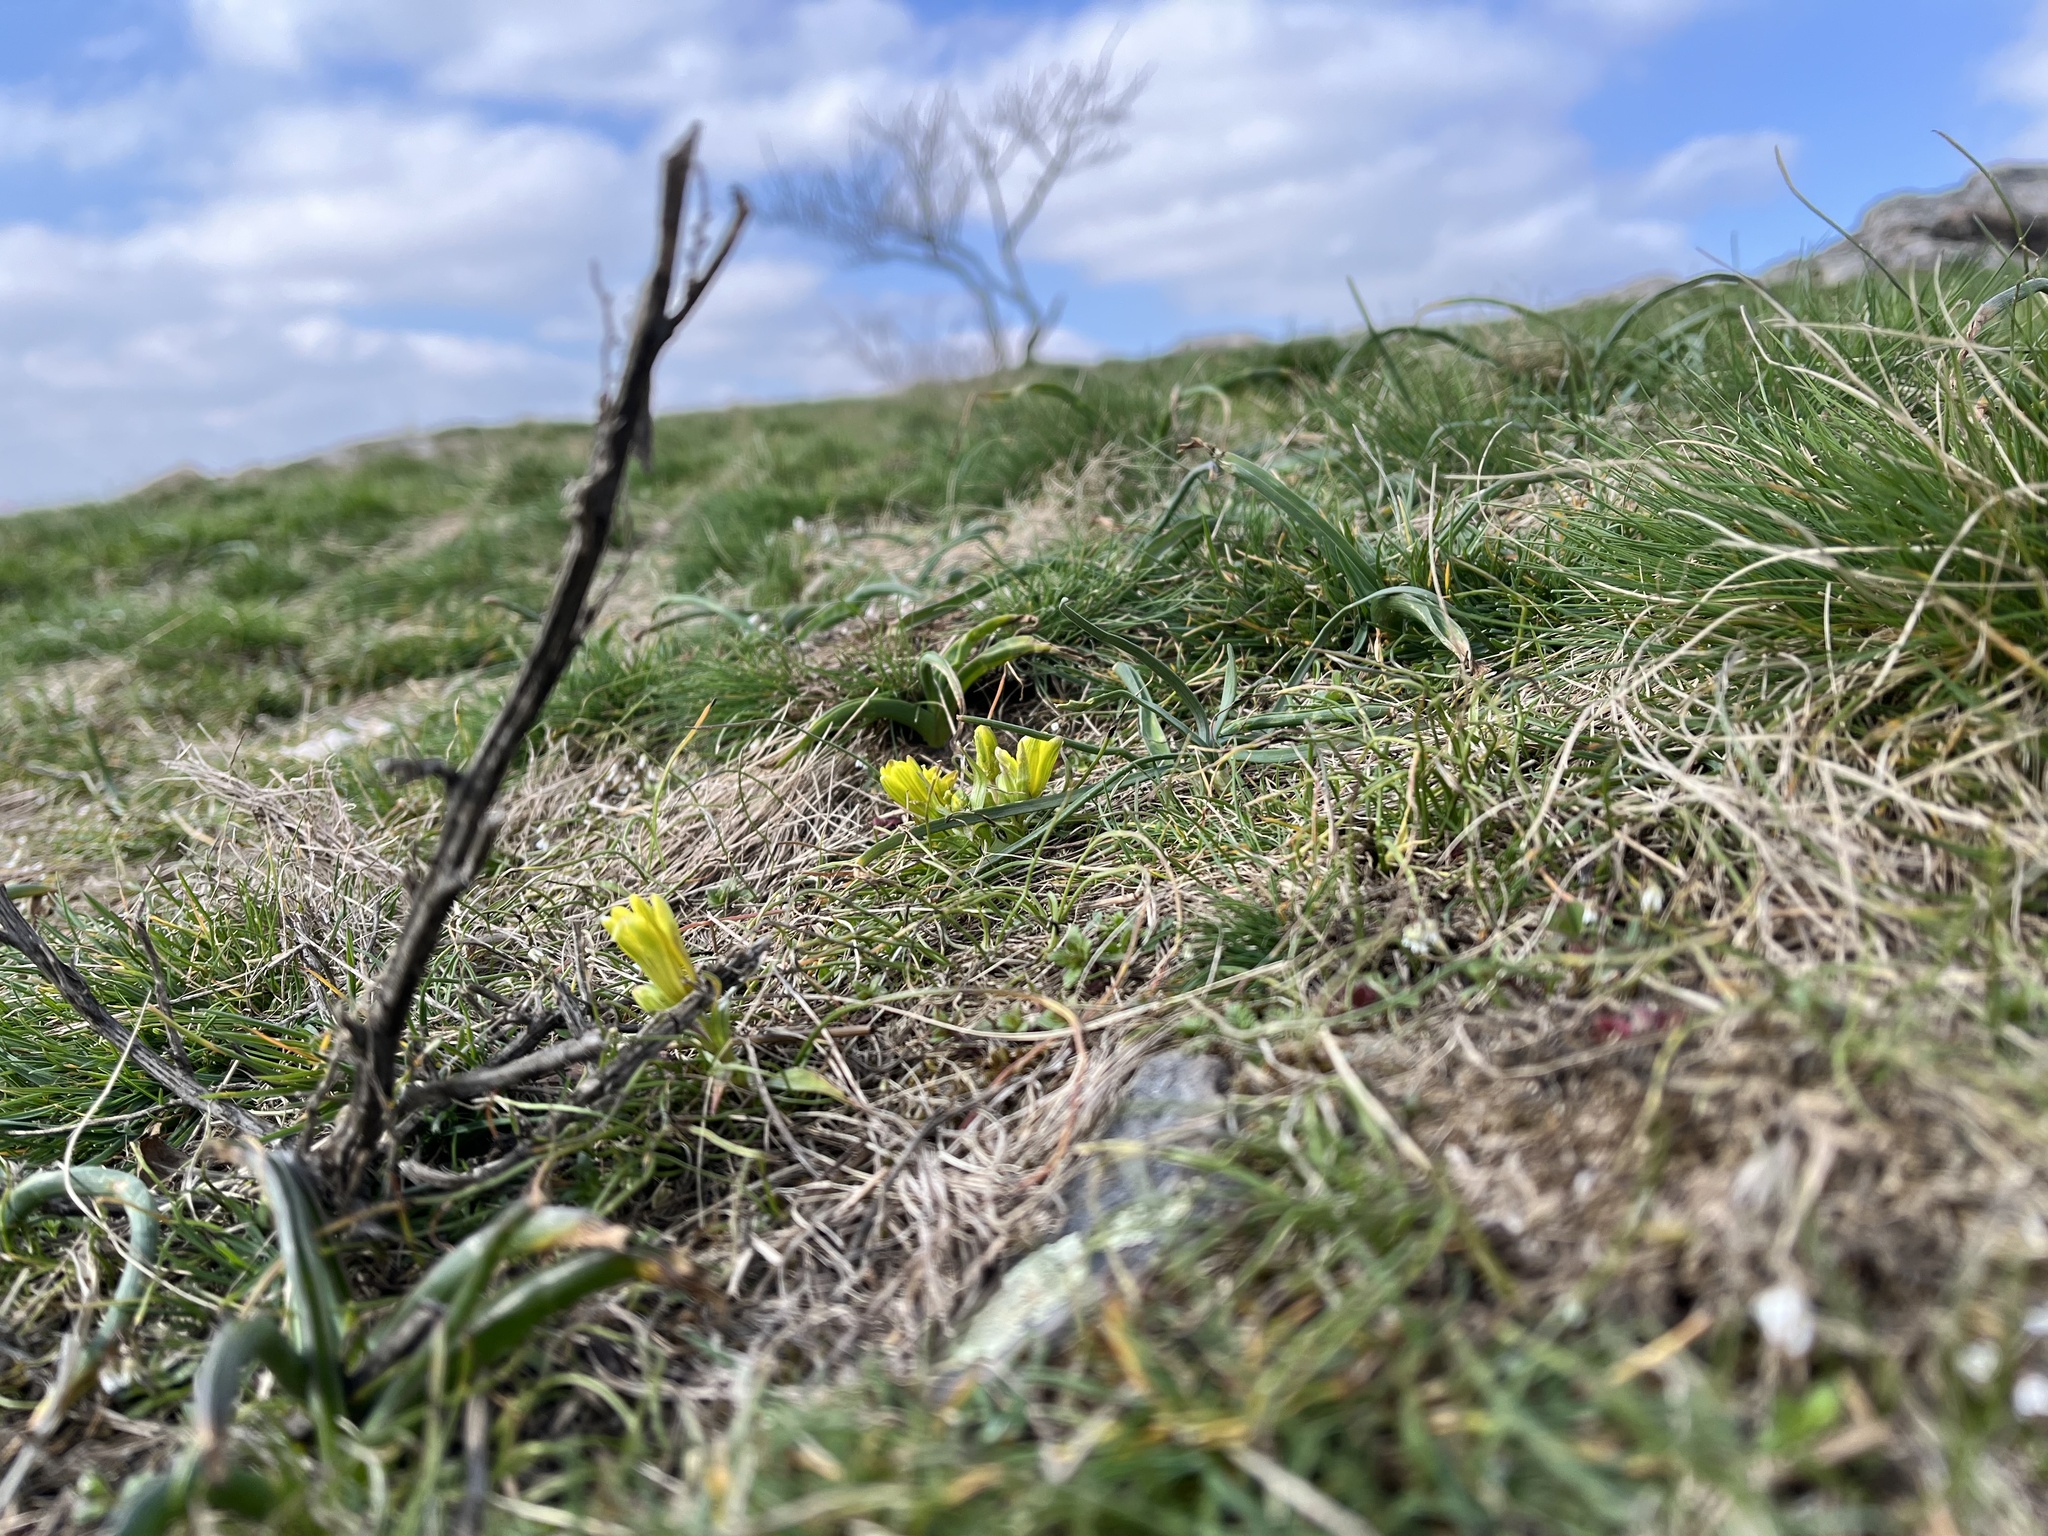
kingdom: Plantae
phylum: Tracheophyta
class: Liliopsida
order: Liliales
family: Liliaceae
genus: Gagea
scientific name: Gagea bohemica
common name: Early star-of-bethlehem
